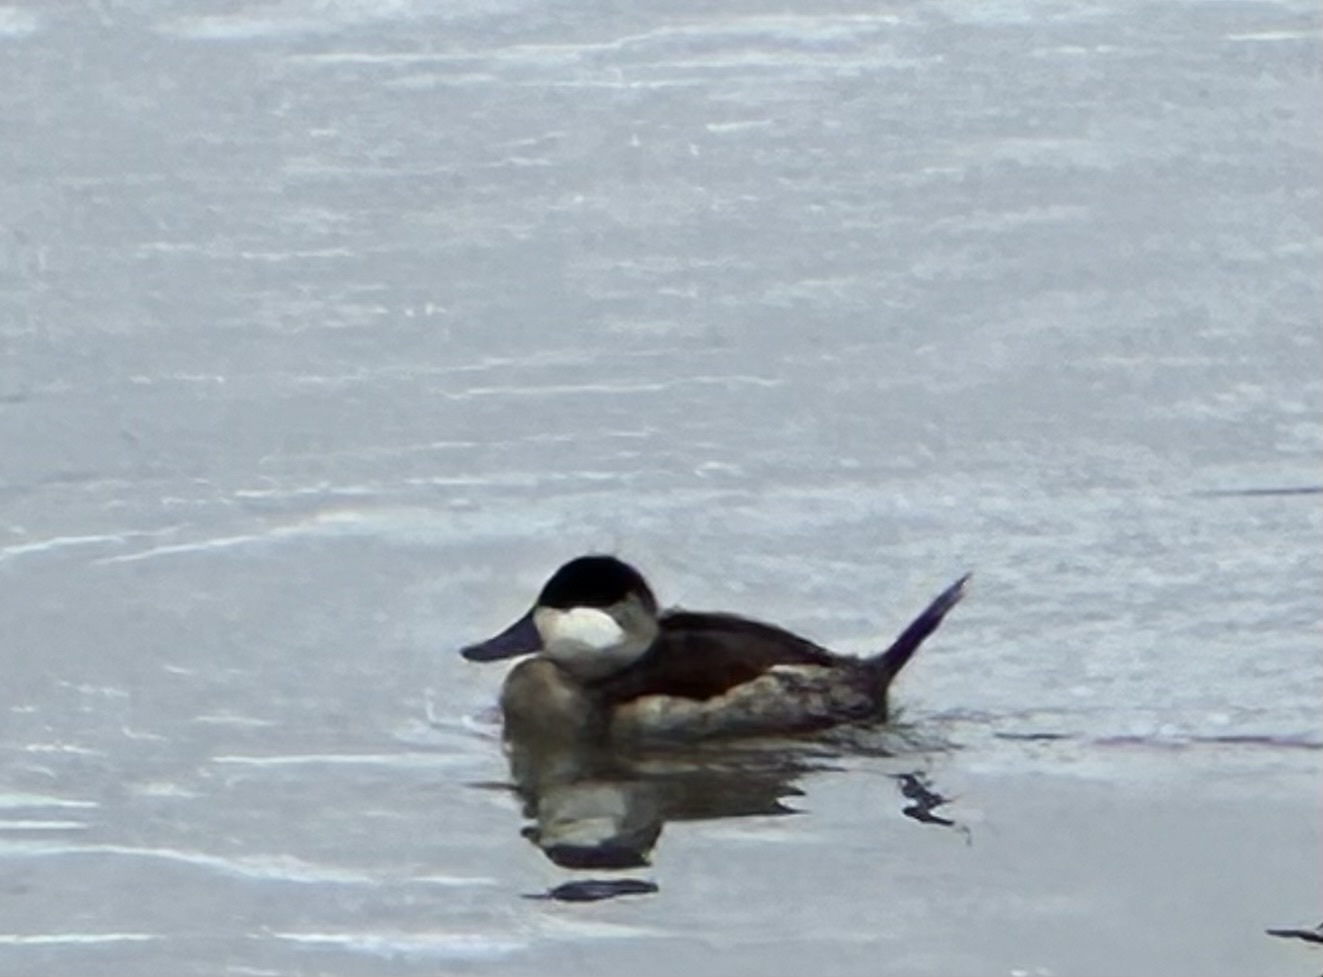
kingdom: Animalia
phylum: Chordata
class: Aves
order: Anseriformes
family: Anatidae
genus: Oxyura
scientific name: Oxyura jamaicensis
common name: Ruddy duck
